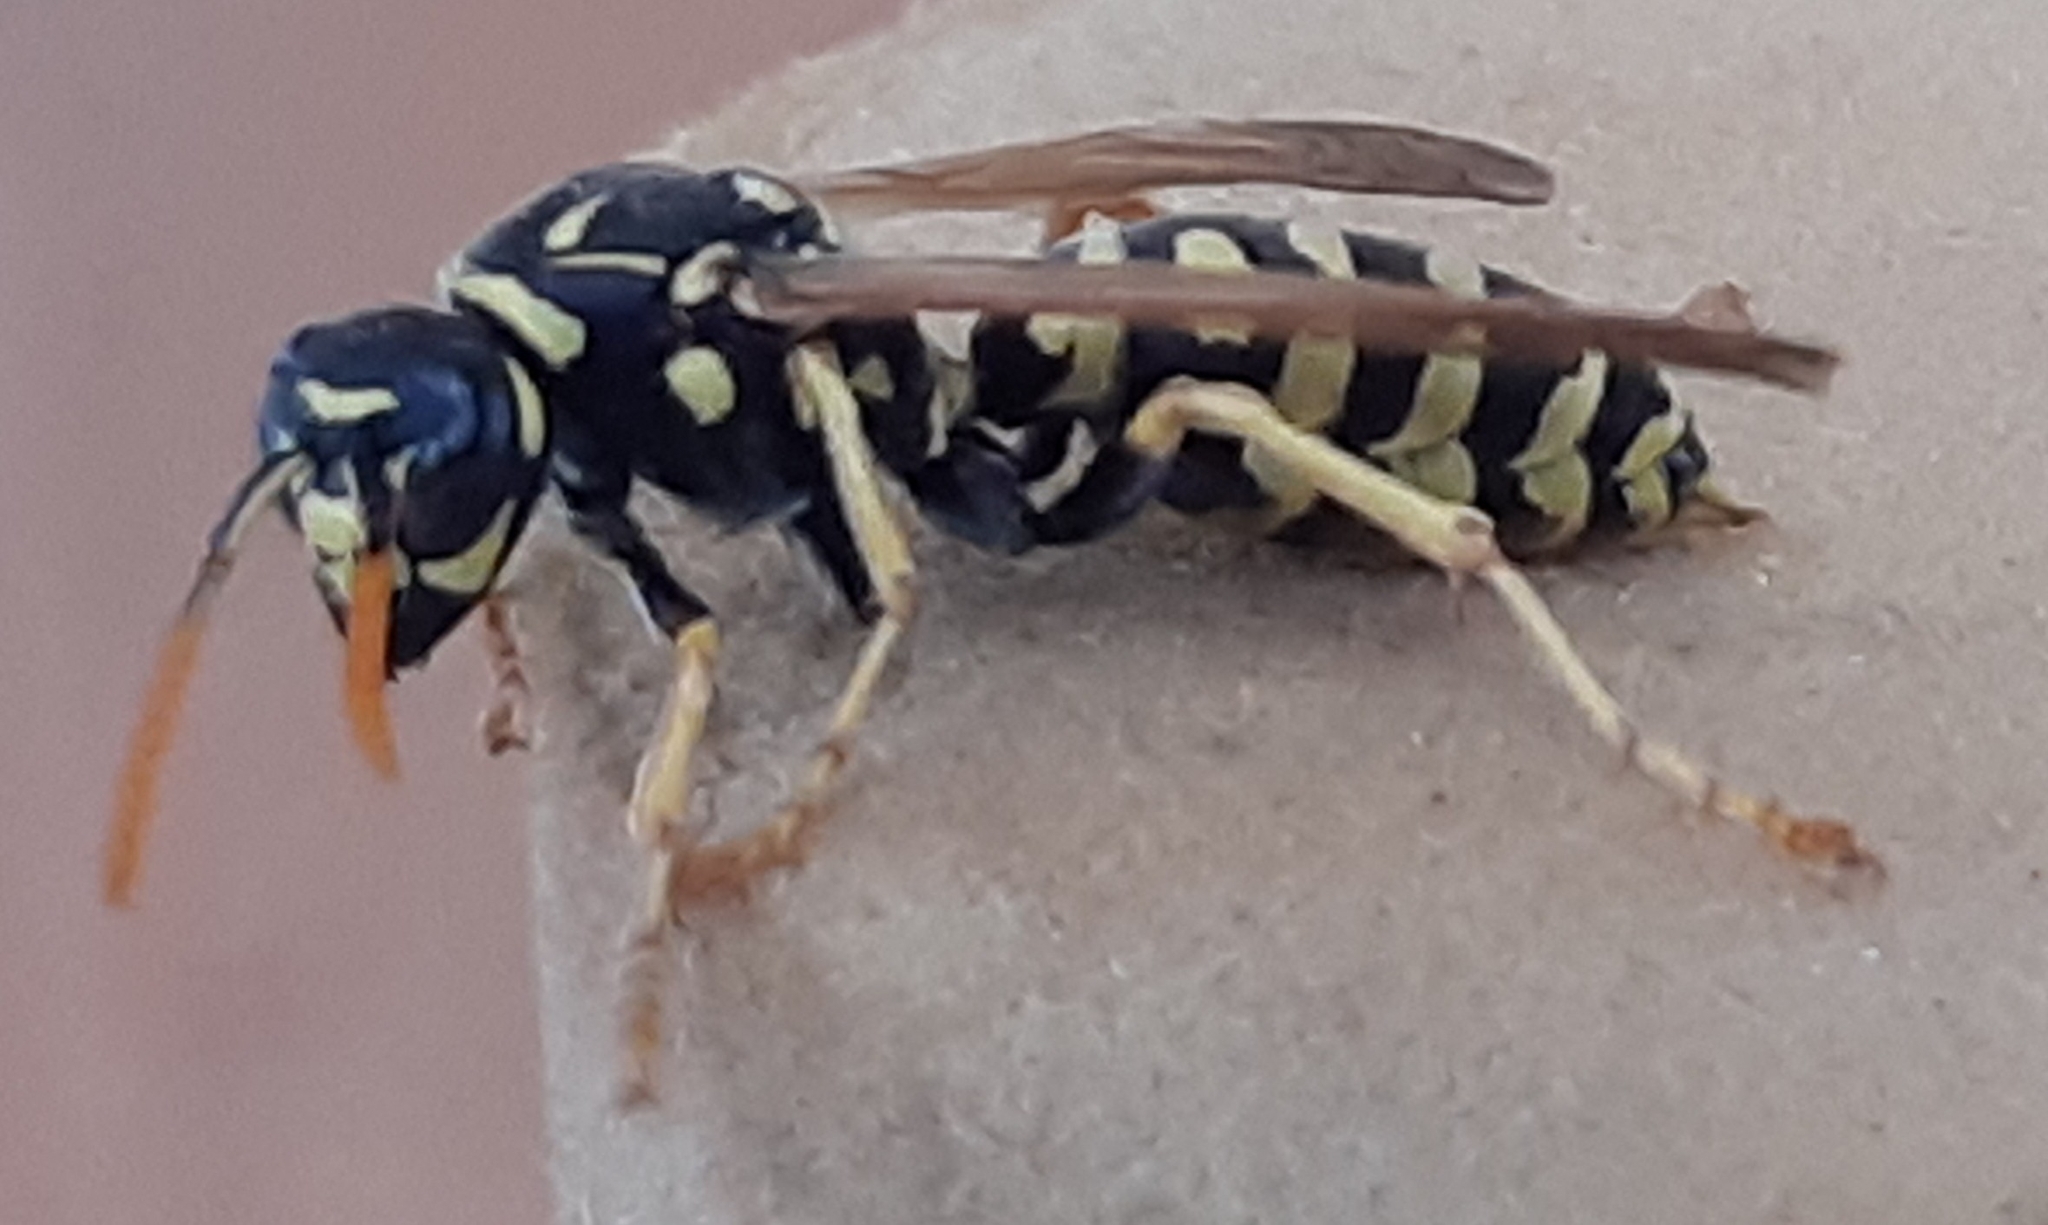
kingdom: Animalia
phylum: Arthropoda
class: Insecta
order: Hymenoptera
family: Eumenidae
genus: Polistes
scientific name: Polistes dominula
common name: Paper wasp
